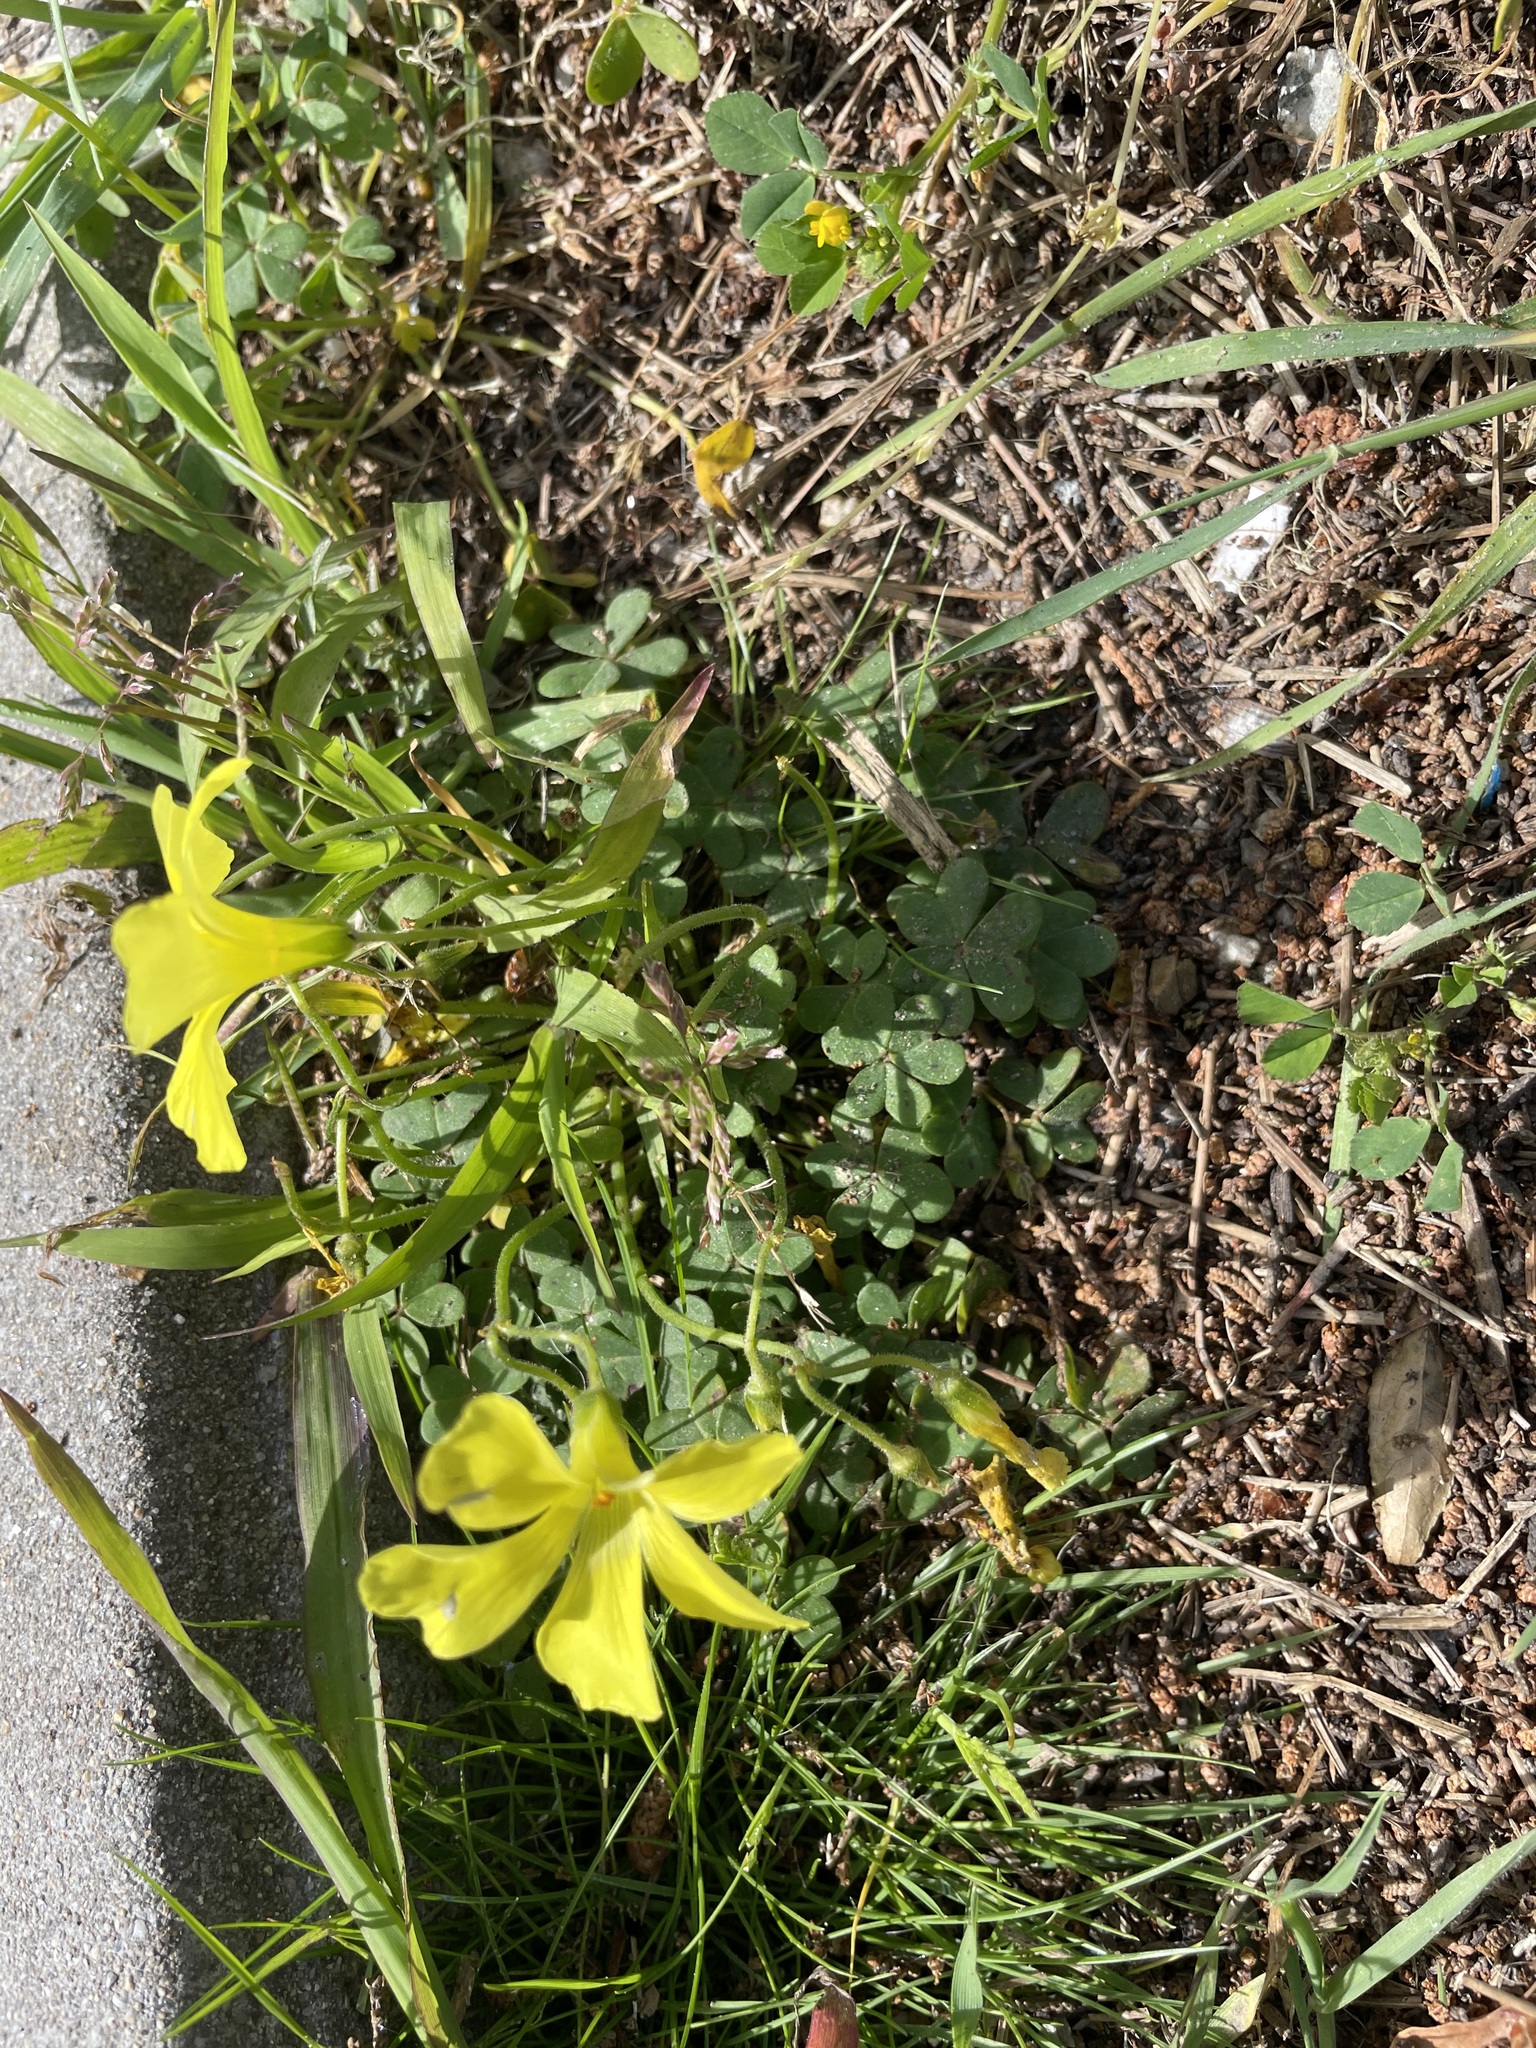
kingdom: Plantae
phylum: Tracheophyta
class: Magnoliopsida
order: Oxalidales
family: Oxalidaceae
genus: Oxalis
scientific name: Oxalis pes-caprae
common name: Bermuda-buttercup
